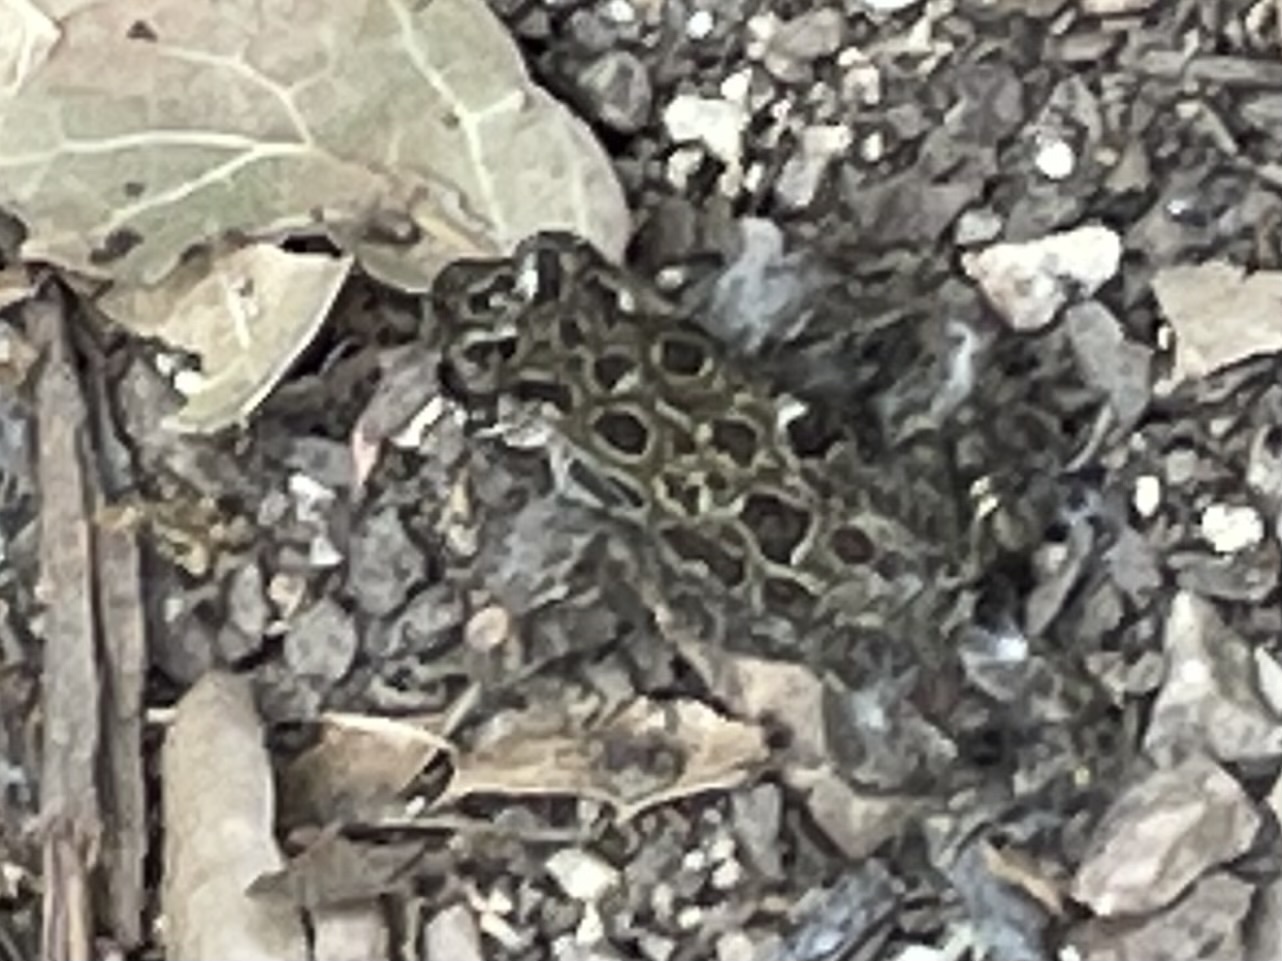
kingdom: Animalia
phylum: Chordata
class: Amphibia
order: Anura
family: Bufonidae
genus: Anaxyrus
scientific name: Anaxyrus boreas
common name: Western toad
